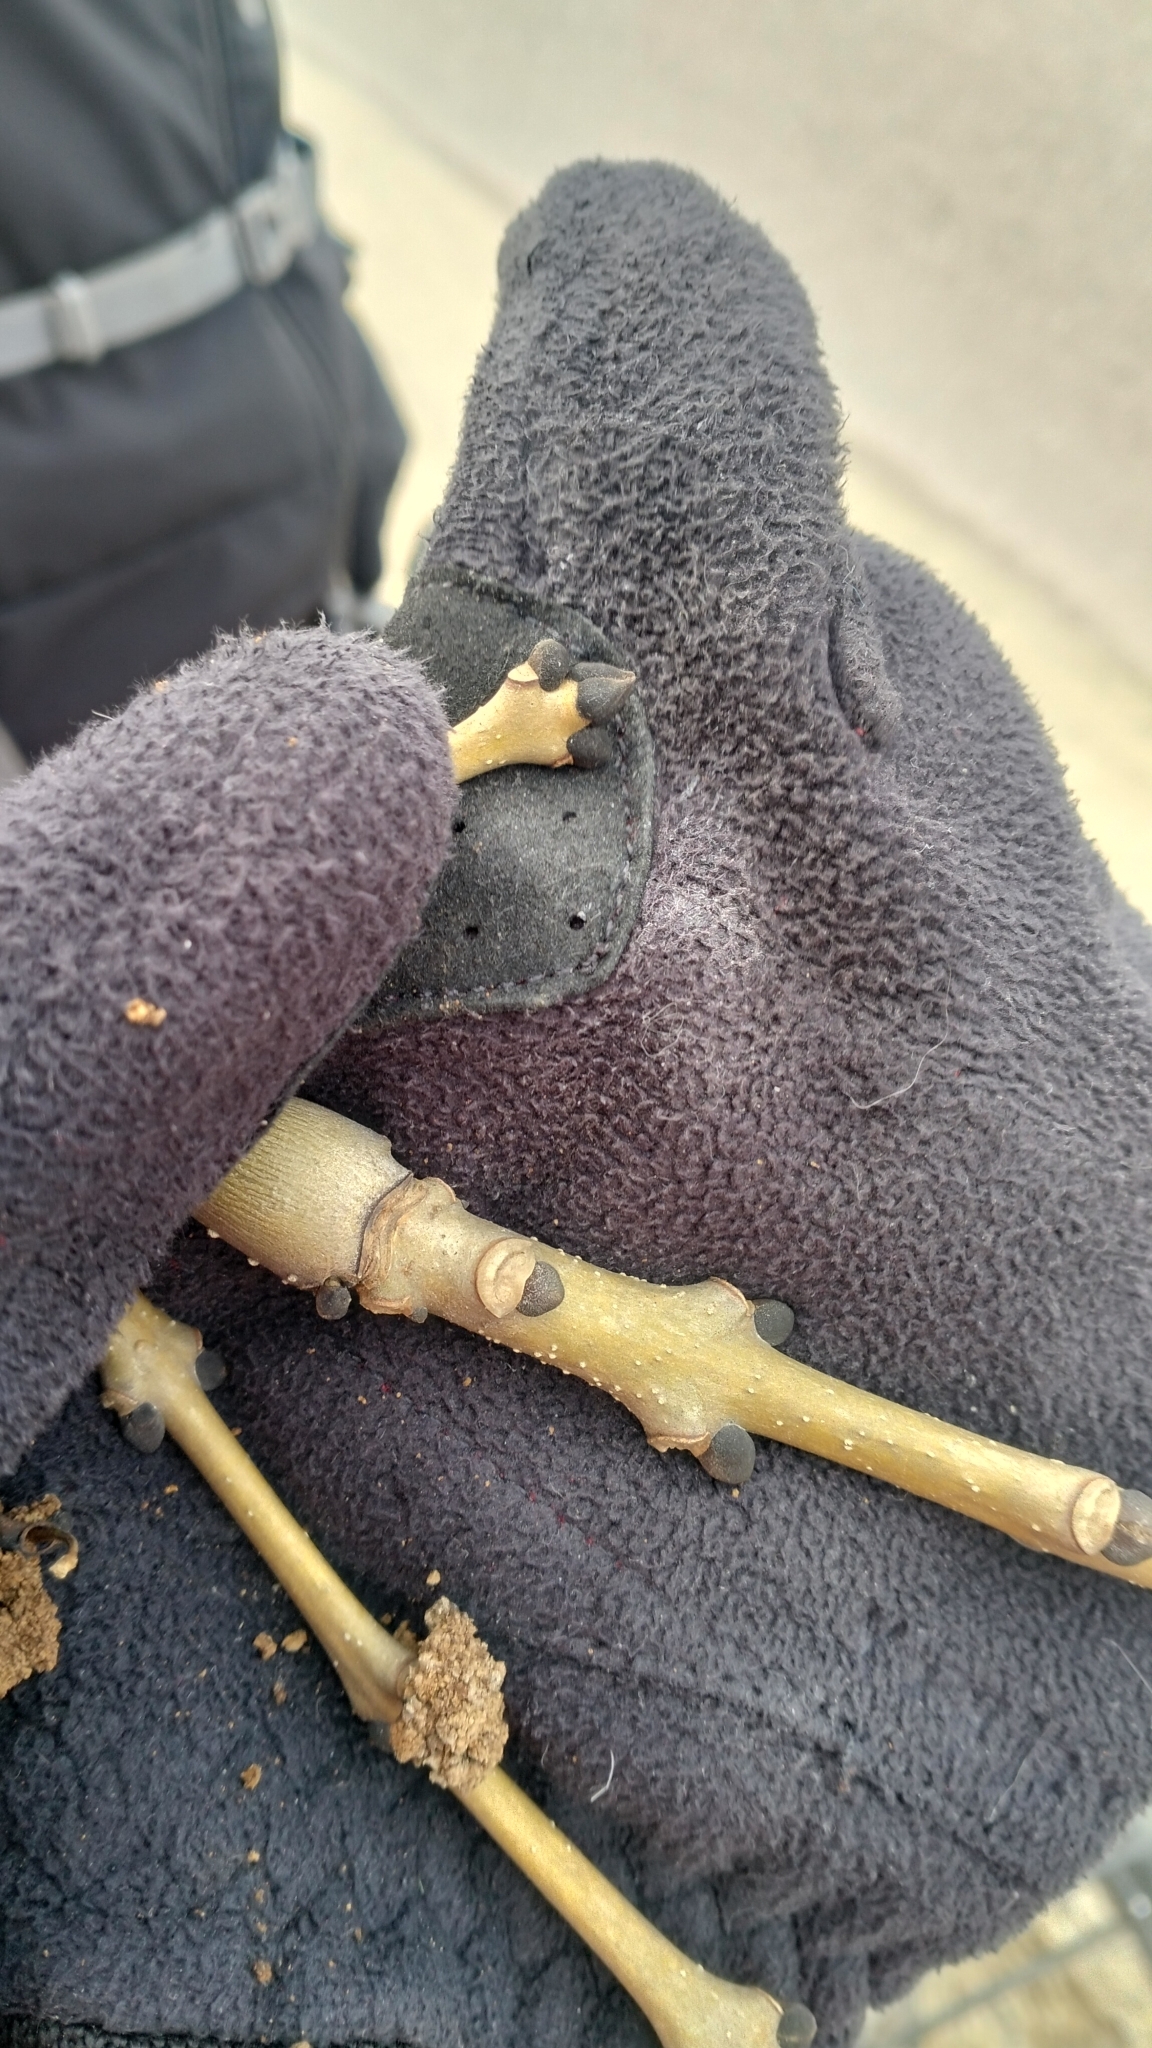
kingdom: Animalia
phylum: Arthropoda
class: Arachnida
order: Trombidiformes
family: Eriophyidae
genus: Aceria
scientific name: Aceria fraxinivora
